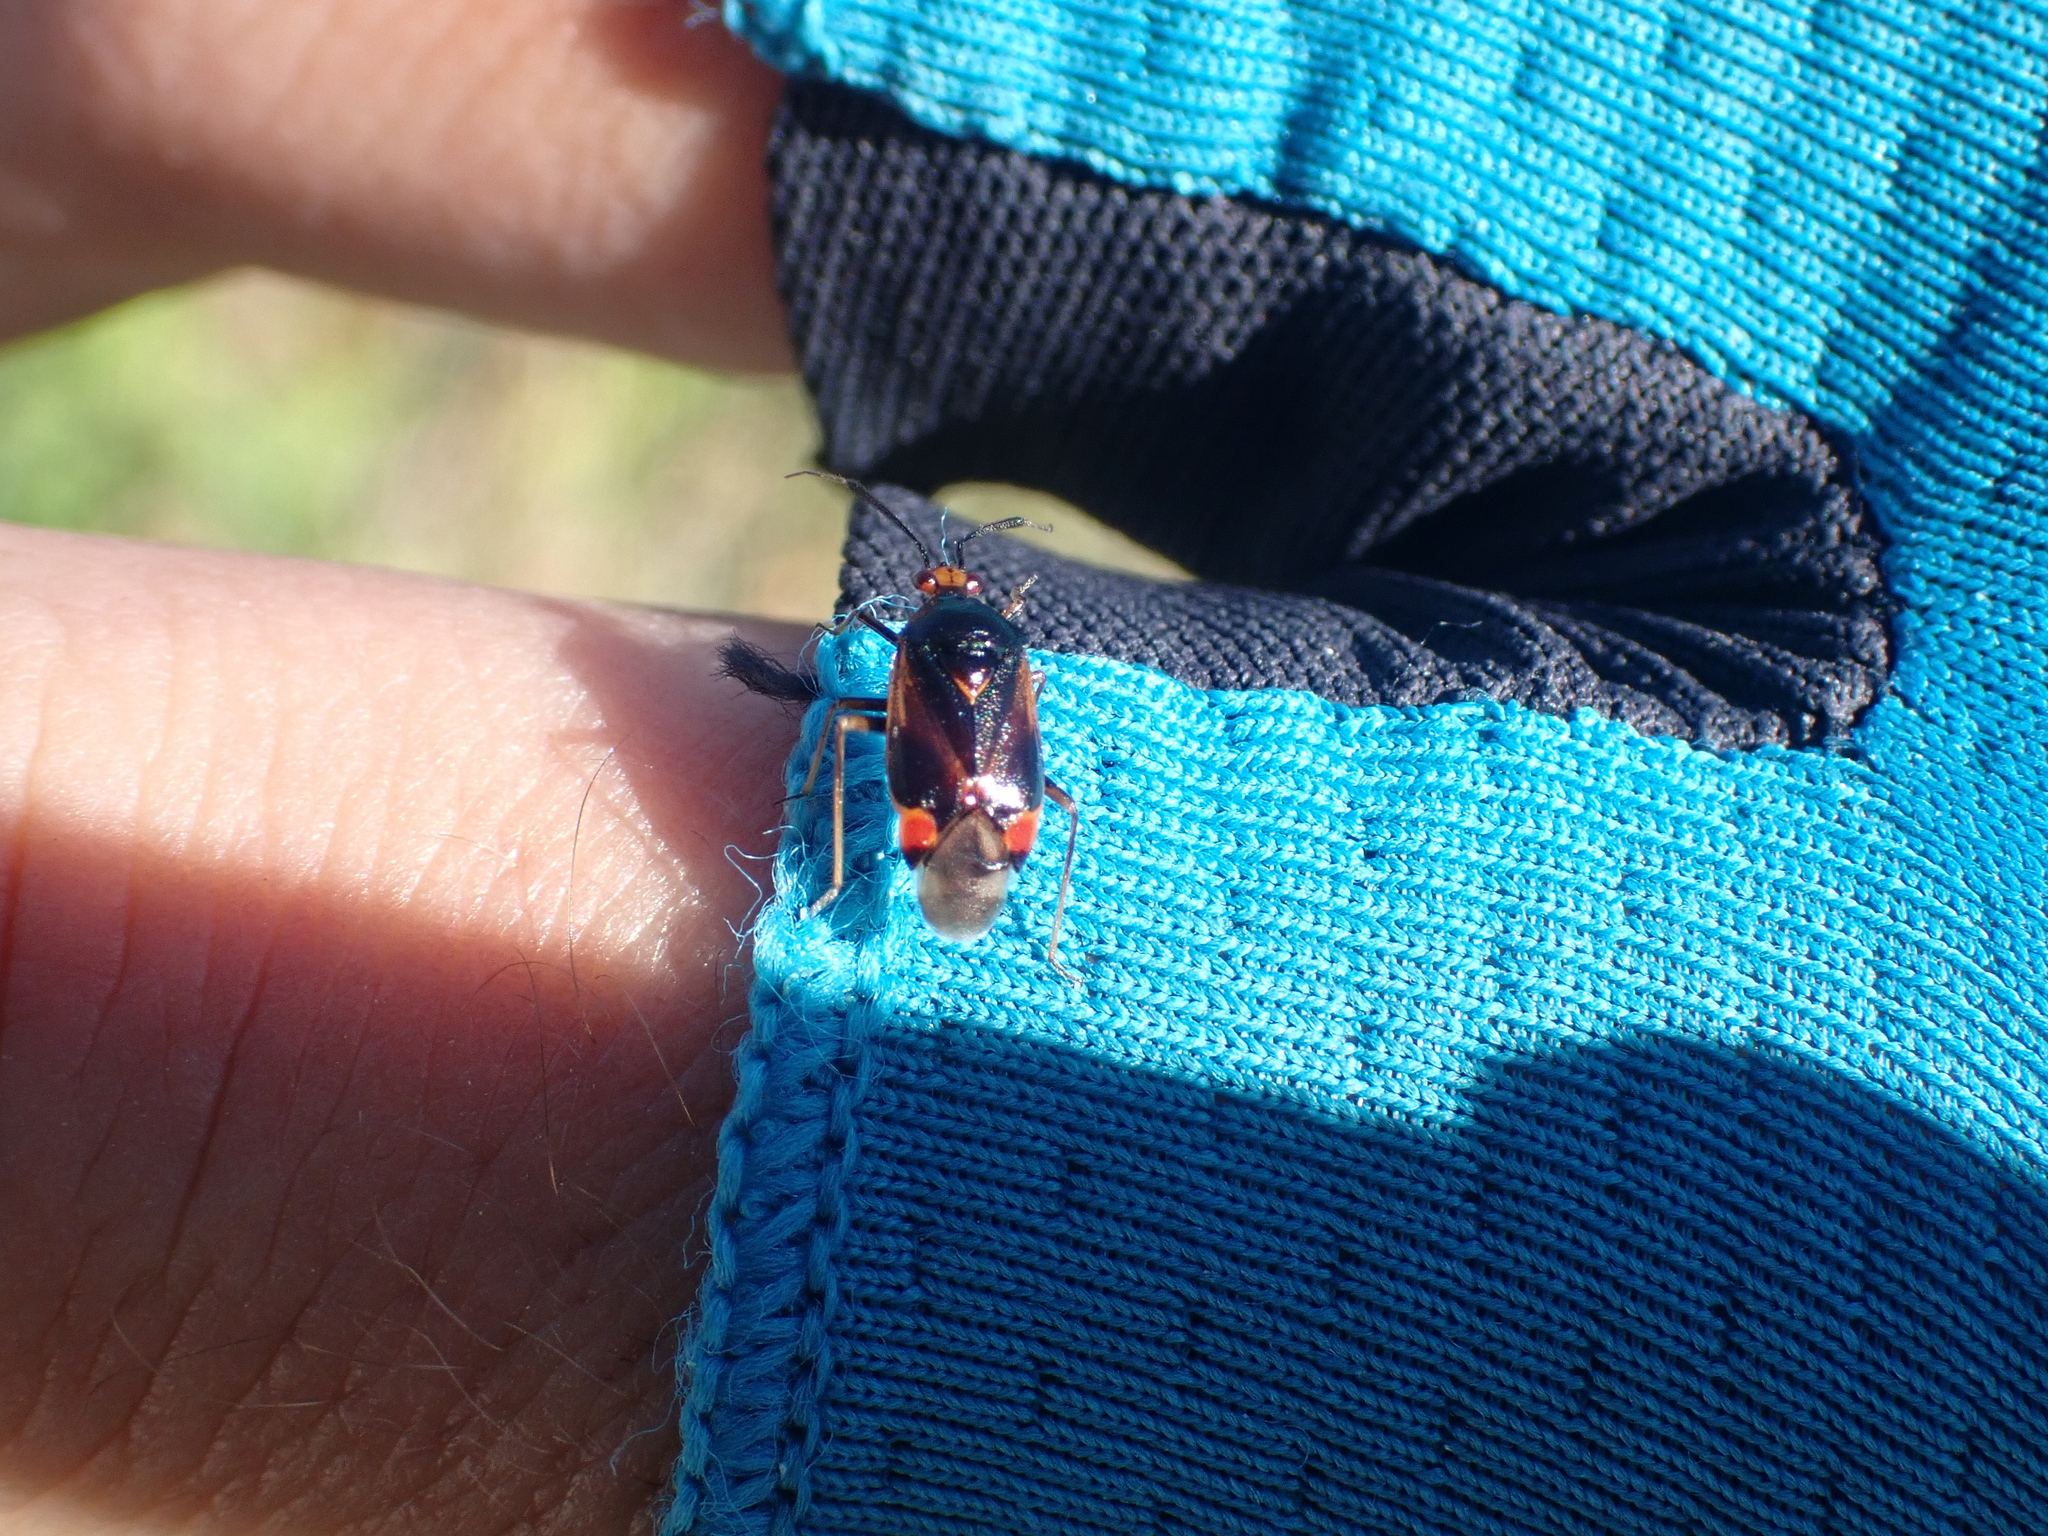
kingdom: Animalia
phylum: Arthropoda
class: Insecta
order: Hemiptera
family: Miridae
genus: Deraeocoris
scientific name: Deraeocoris ruber
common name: Plant bug
